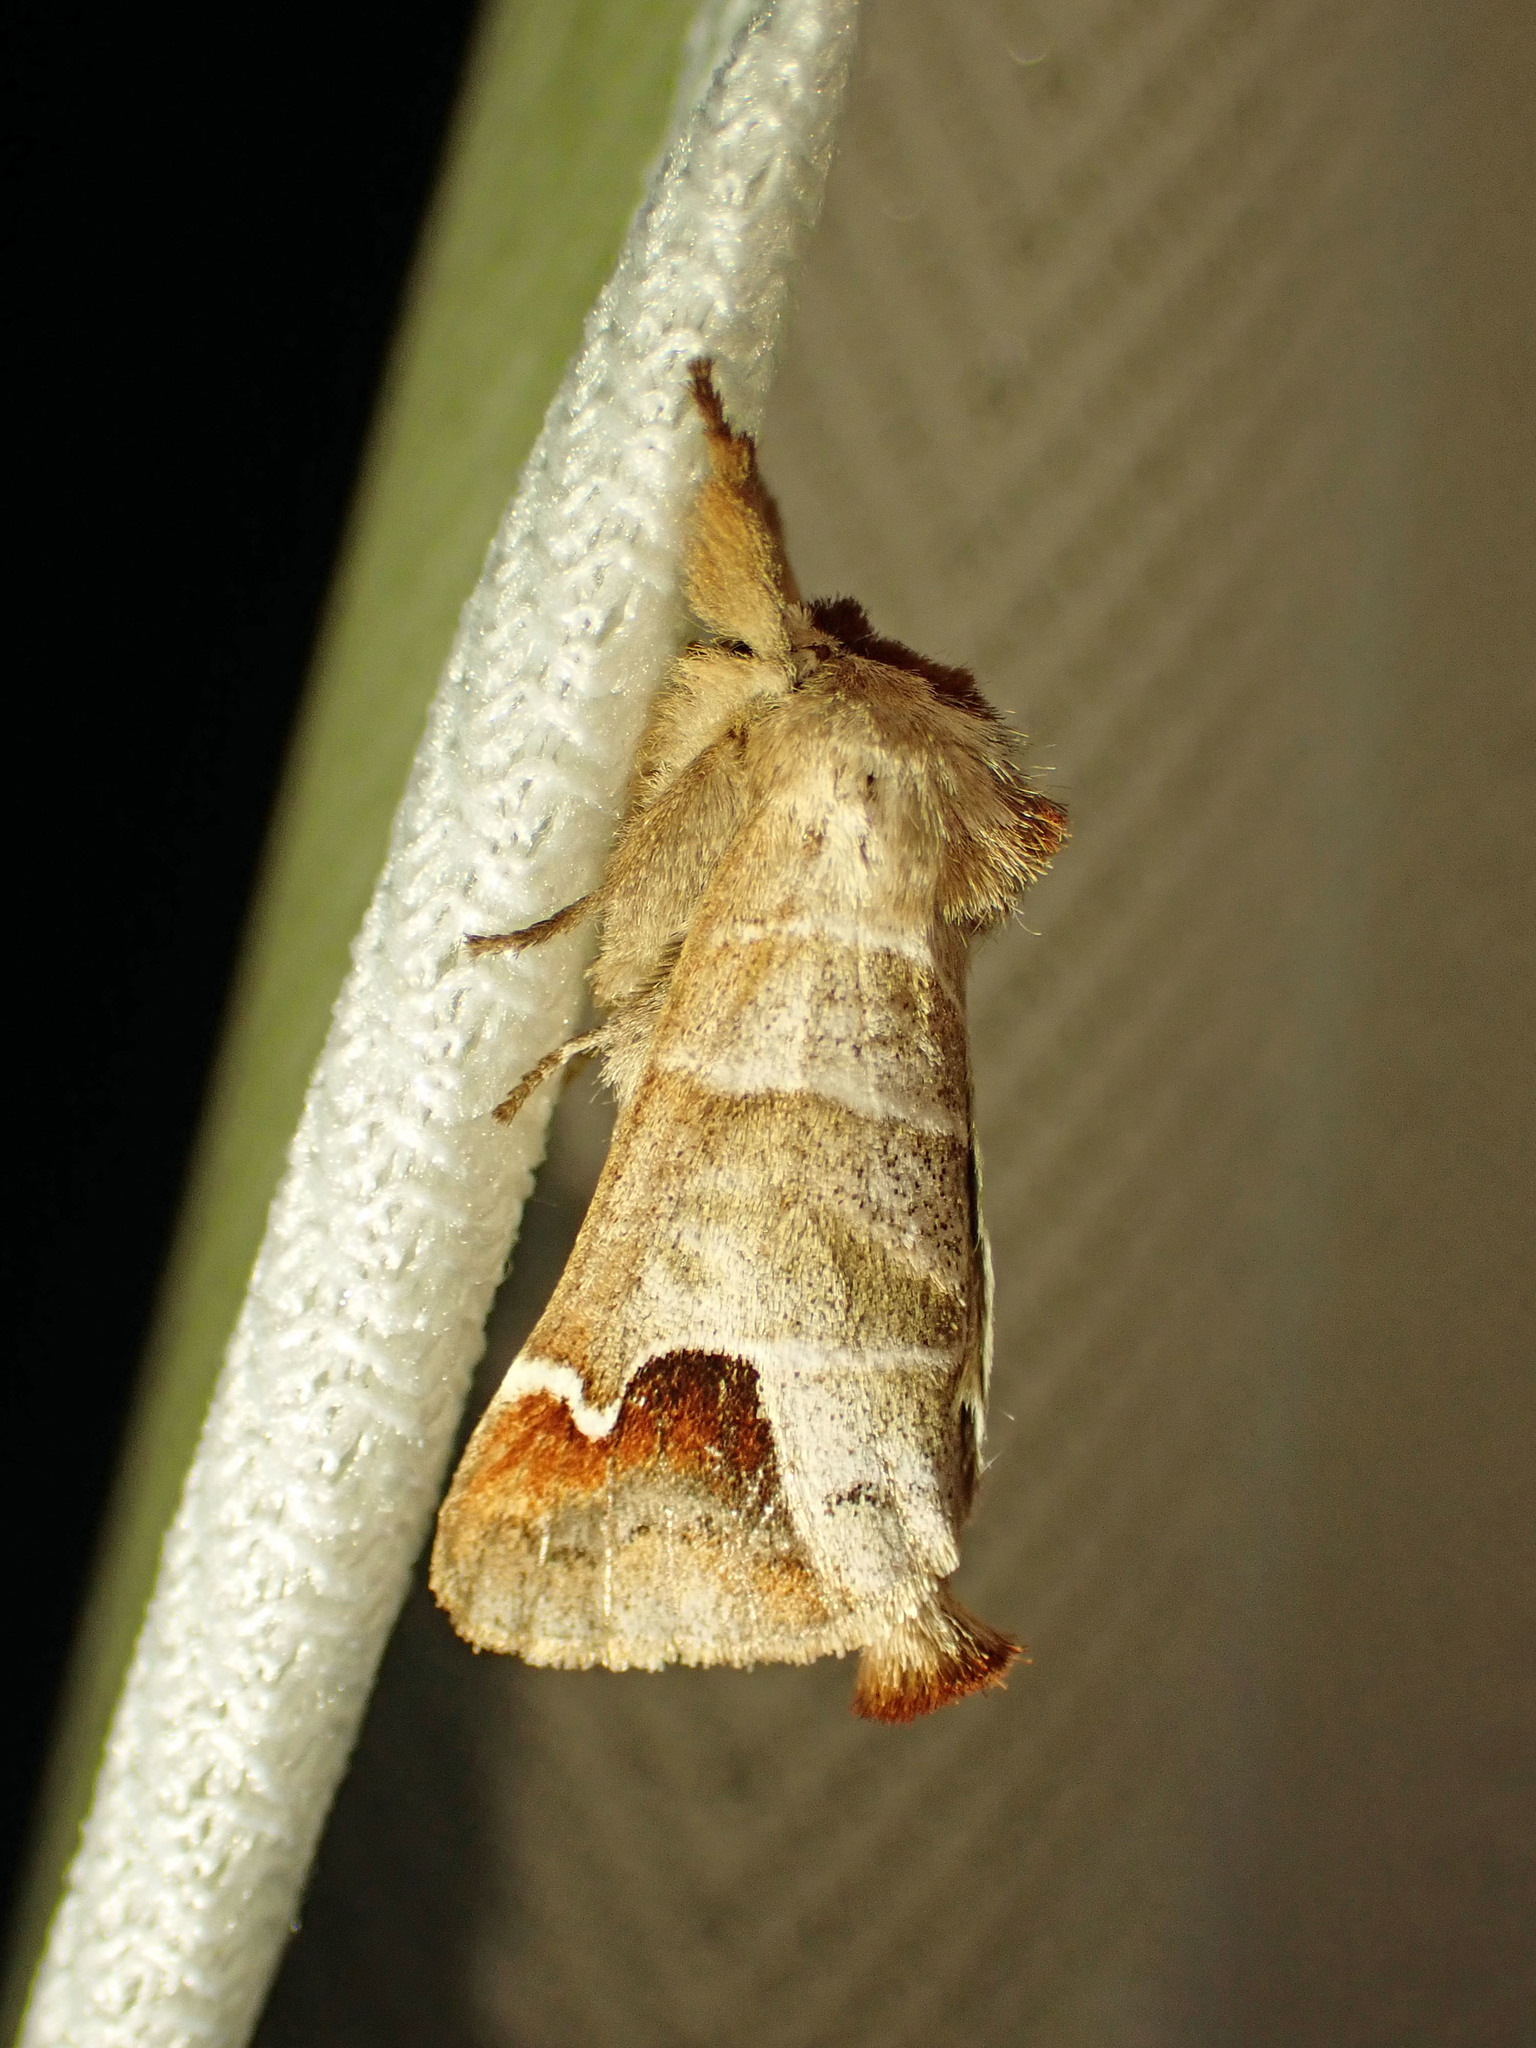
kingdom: Animalia
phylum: Arthropoda
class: Insecta
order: Lepidoptera
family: Notodontidae
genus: Clostera
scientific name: Clostera albosigma
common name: Sigmoid prominent
